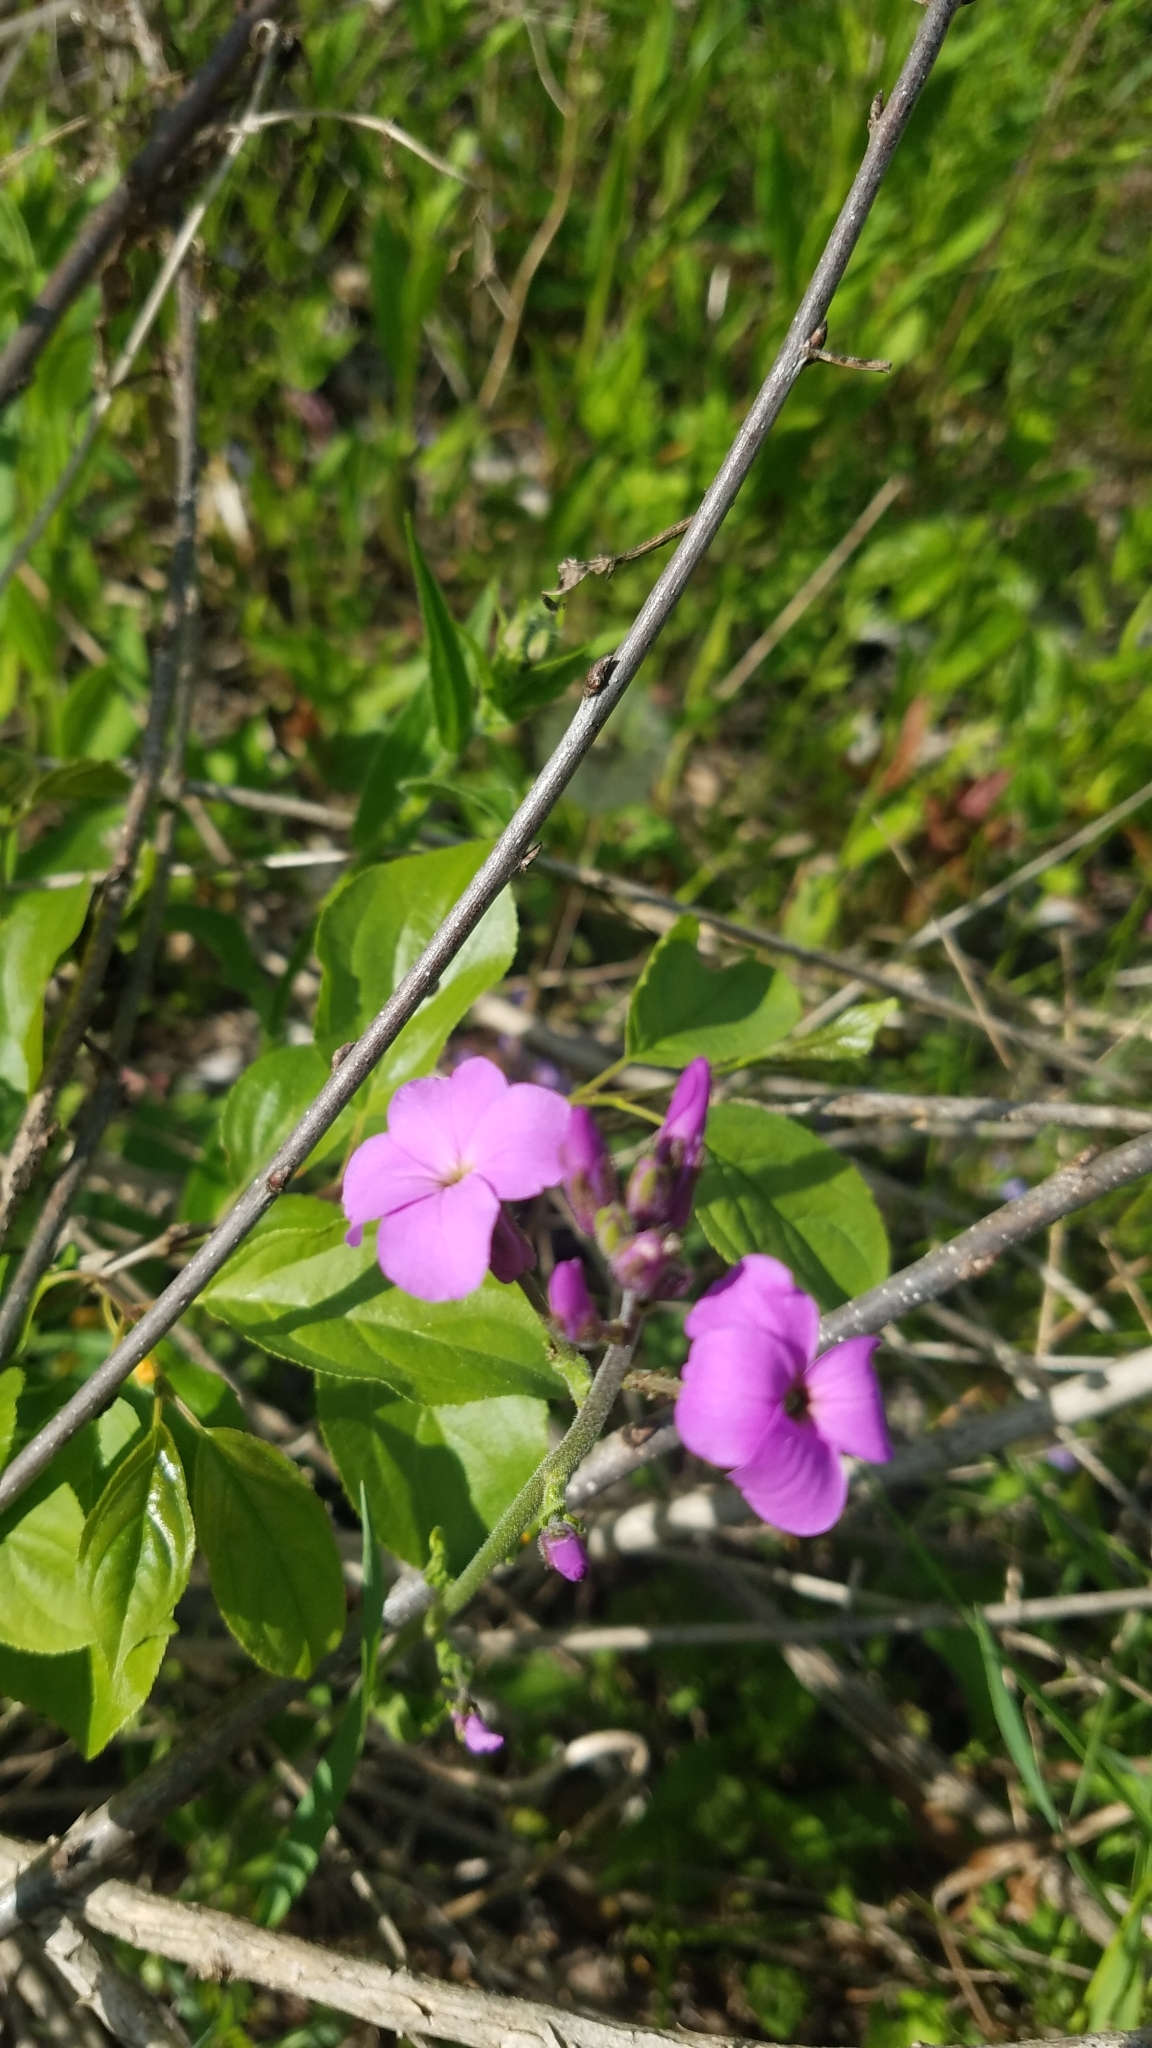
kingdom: Plantae
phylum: Tracheophyta
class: Magnoliopsida
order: Brassicales
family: Brassicaceae
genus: Hesperis
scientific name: Hesperis matronalis
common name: Dame's-violet
